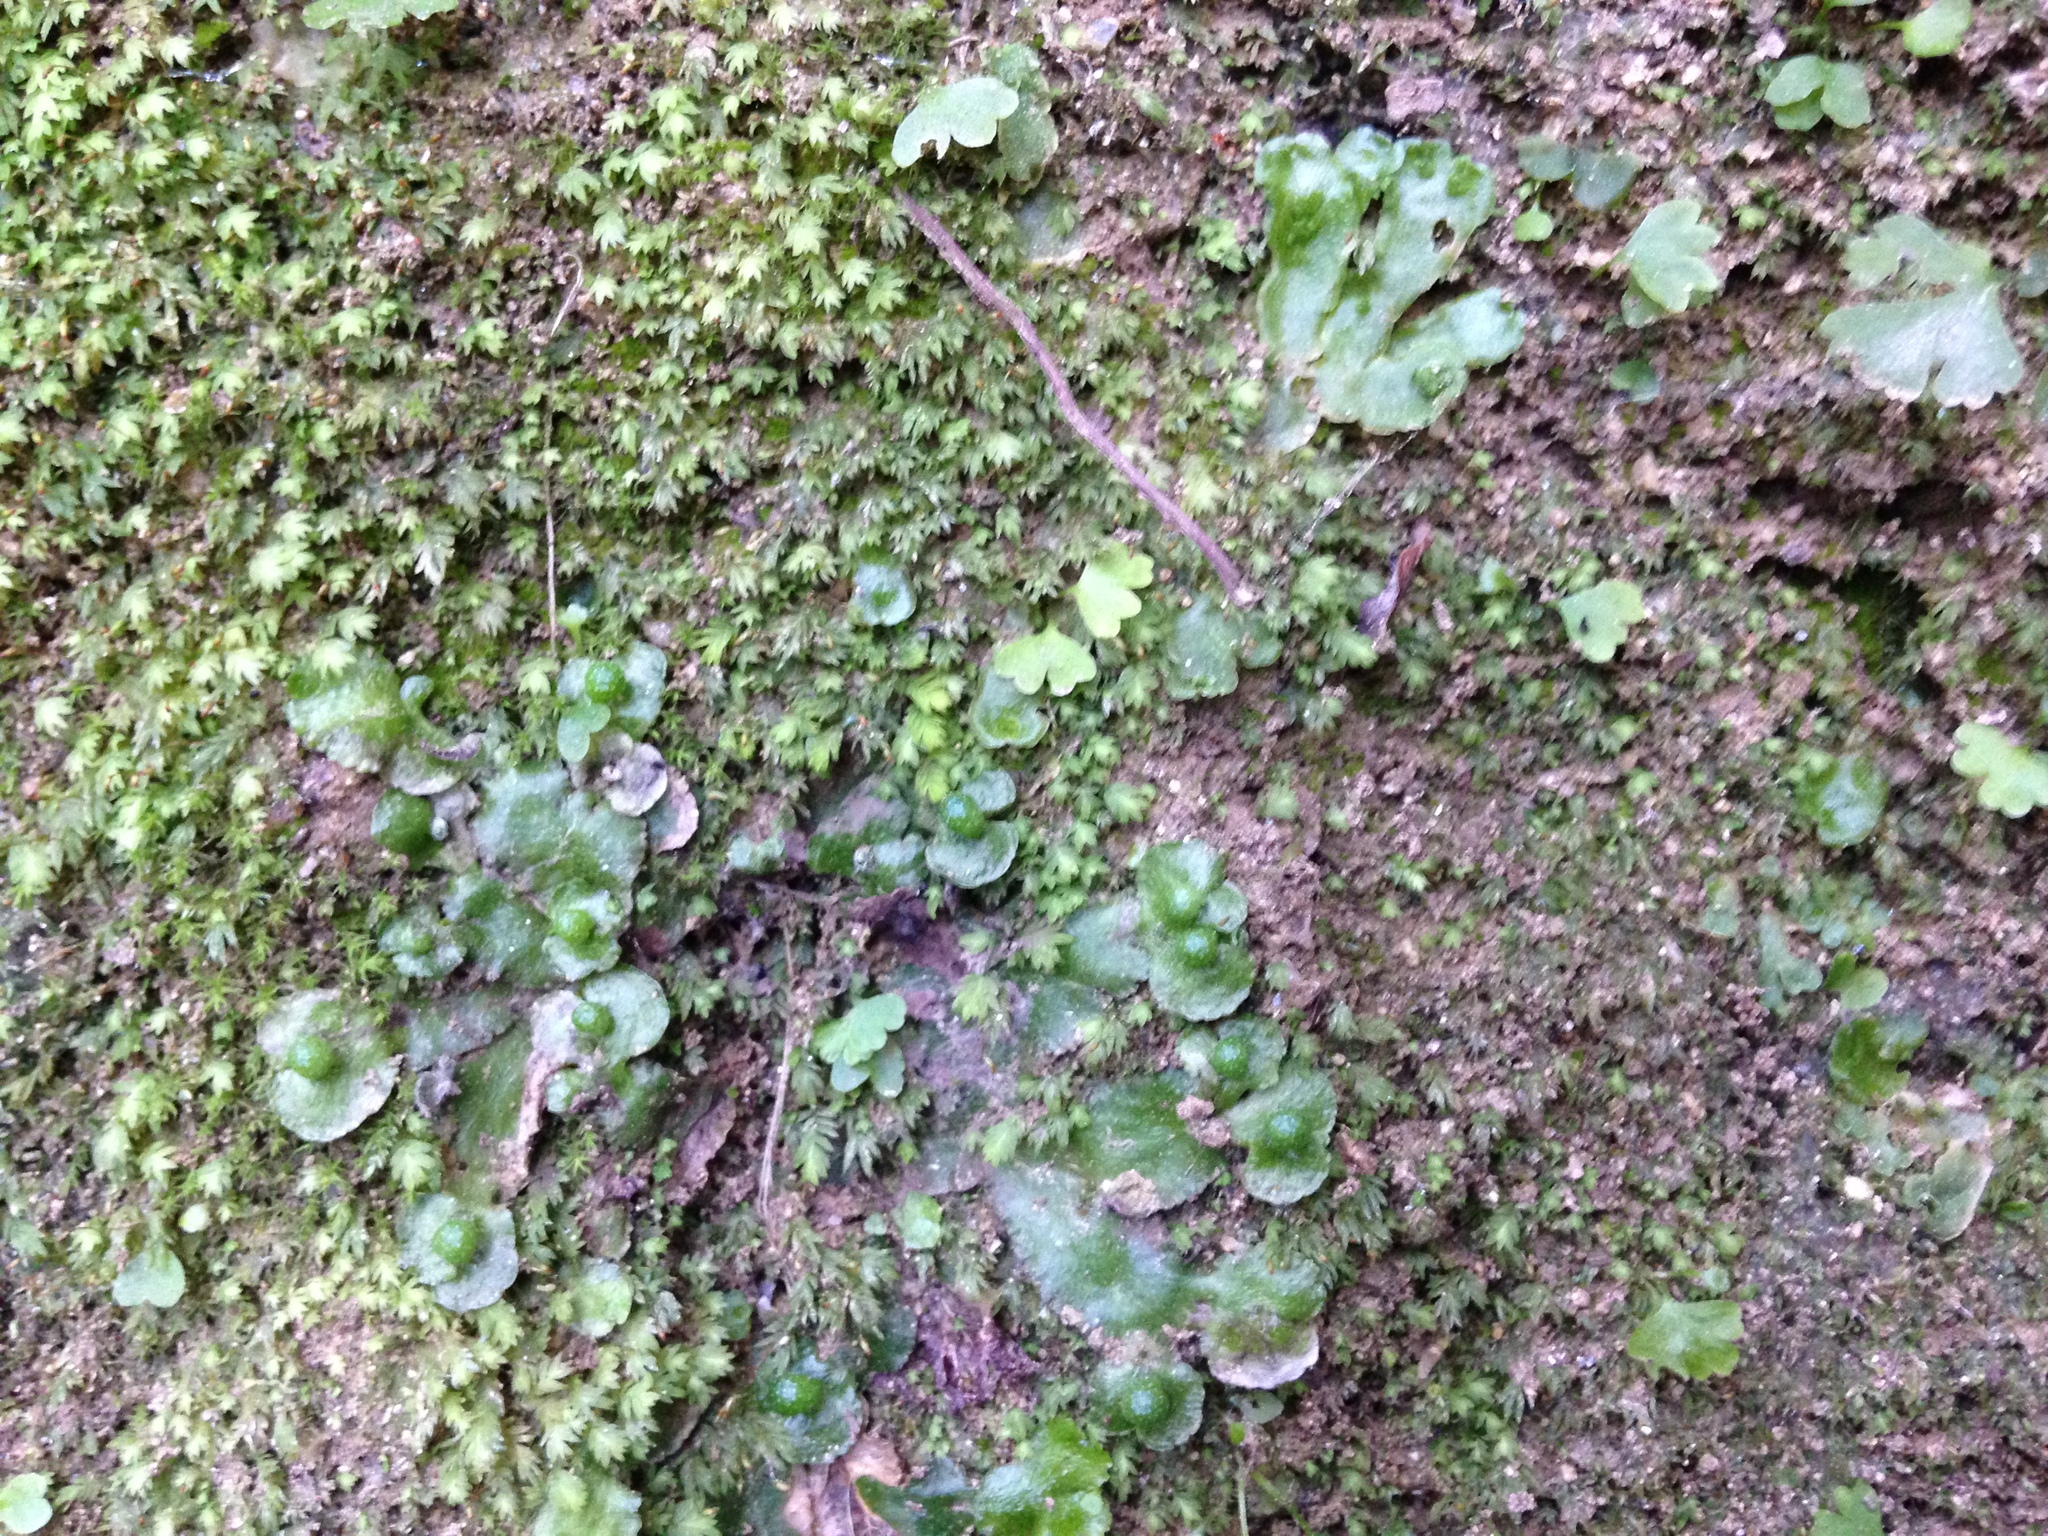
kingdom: Plantae
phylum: Marchantiophyta
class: Marchantiopsida
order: Lunulariales
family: Lunulariaceae
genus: Lunularia
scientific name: Lunularia cruciata
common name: Crescent-cup liverwort
